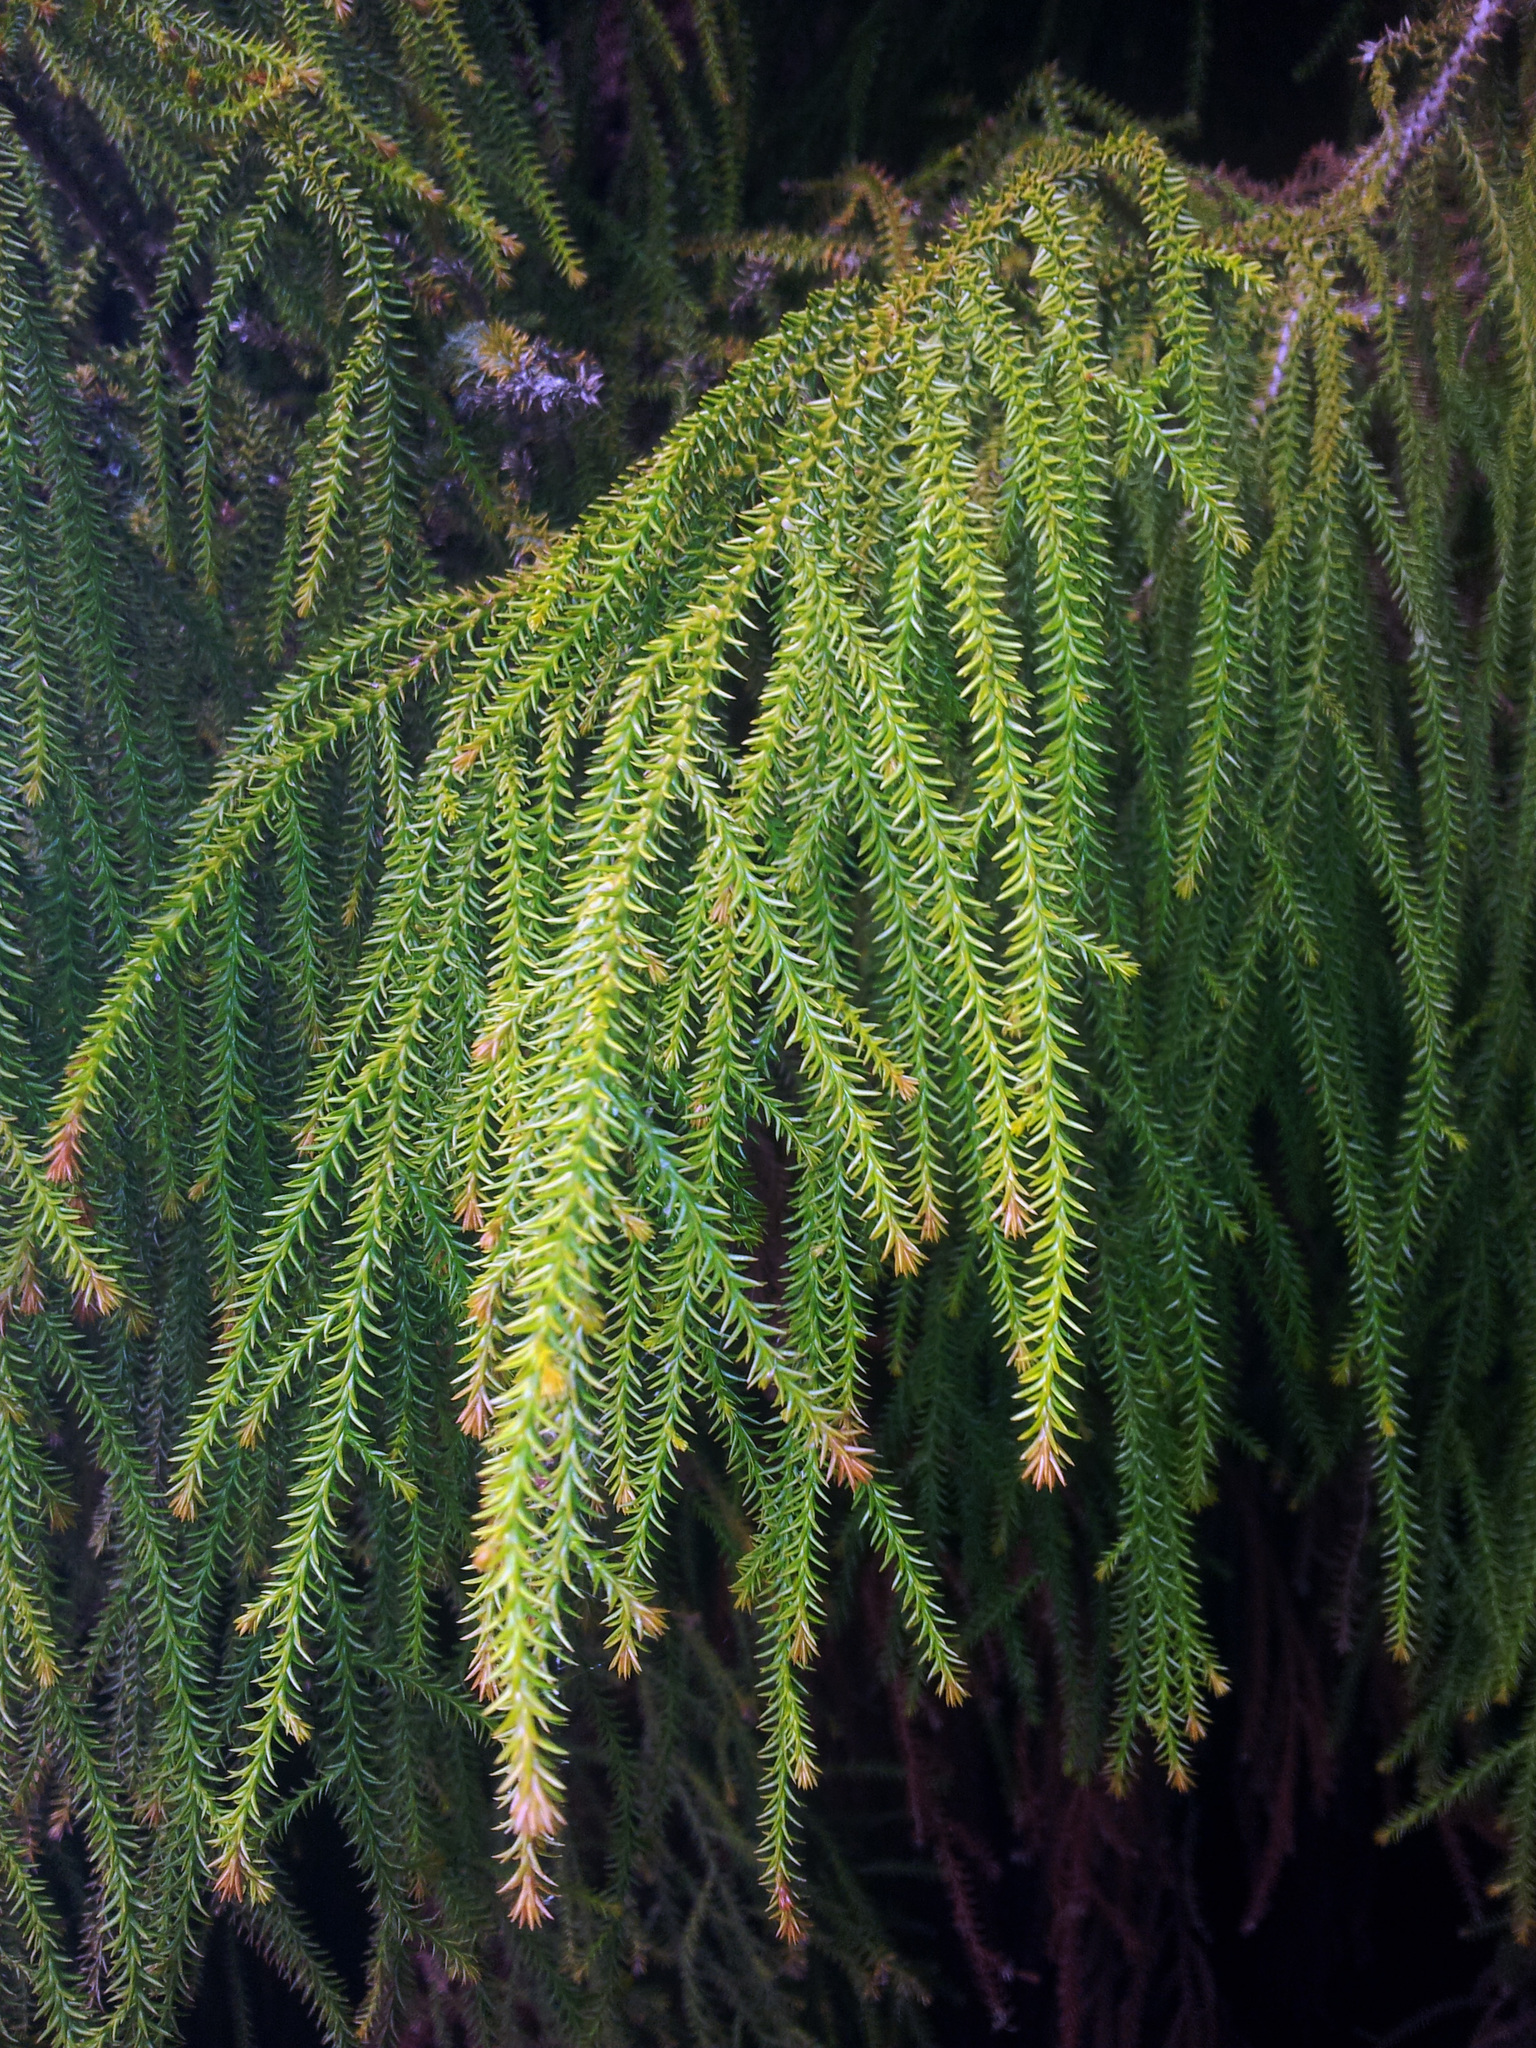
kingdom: Plantae
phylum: Tracheophyta
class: Pinopsida
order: Pinales
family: Podocarpaceae
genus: Dacrydium
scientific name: Dacrydium cupressinum
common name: Red pine
